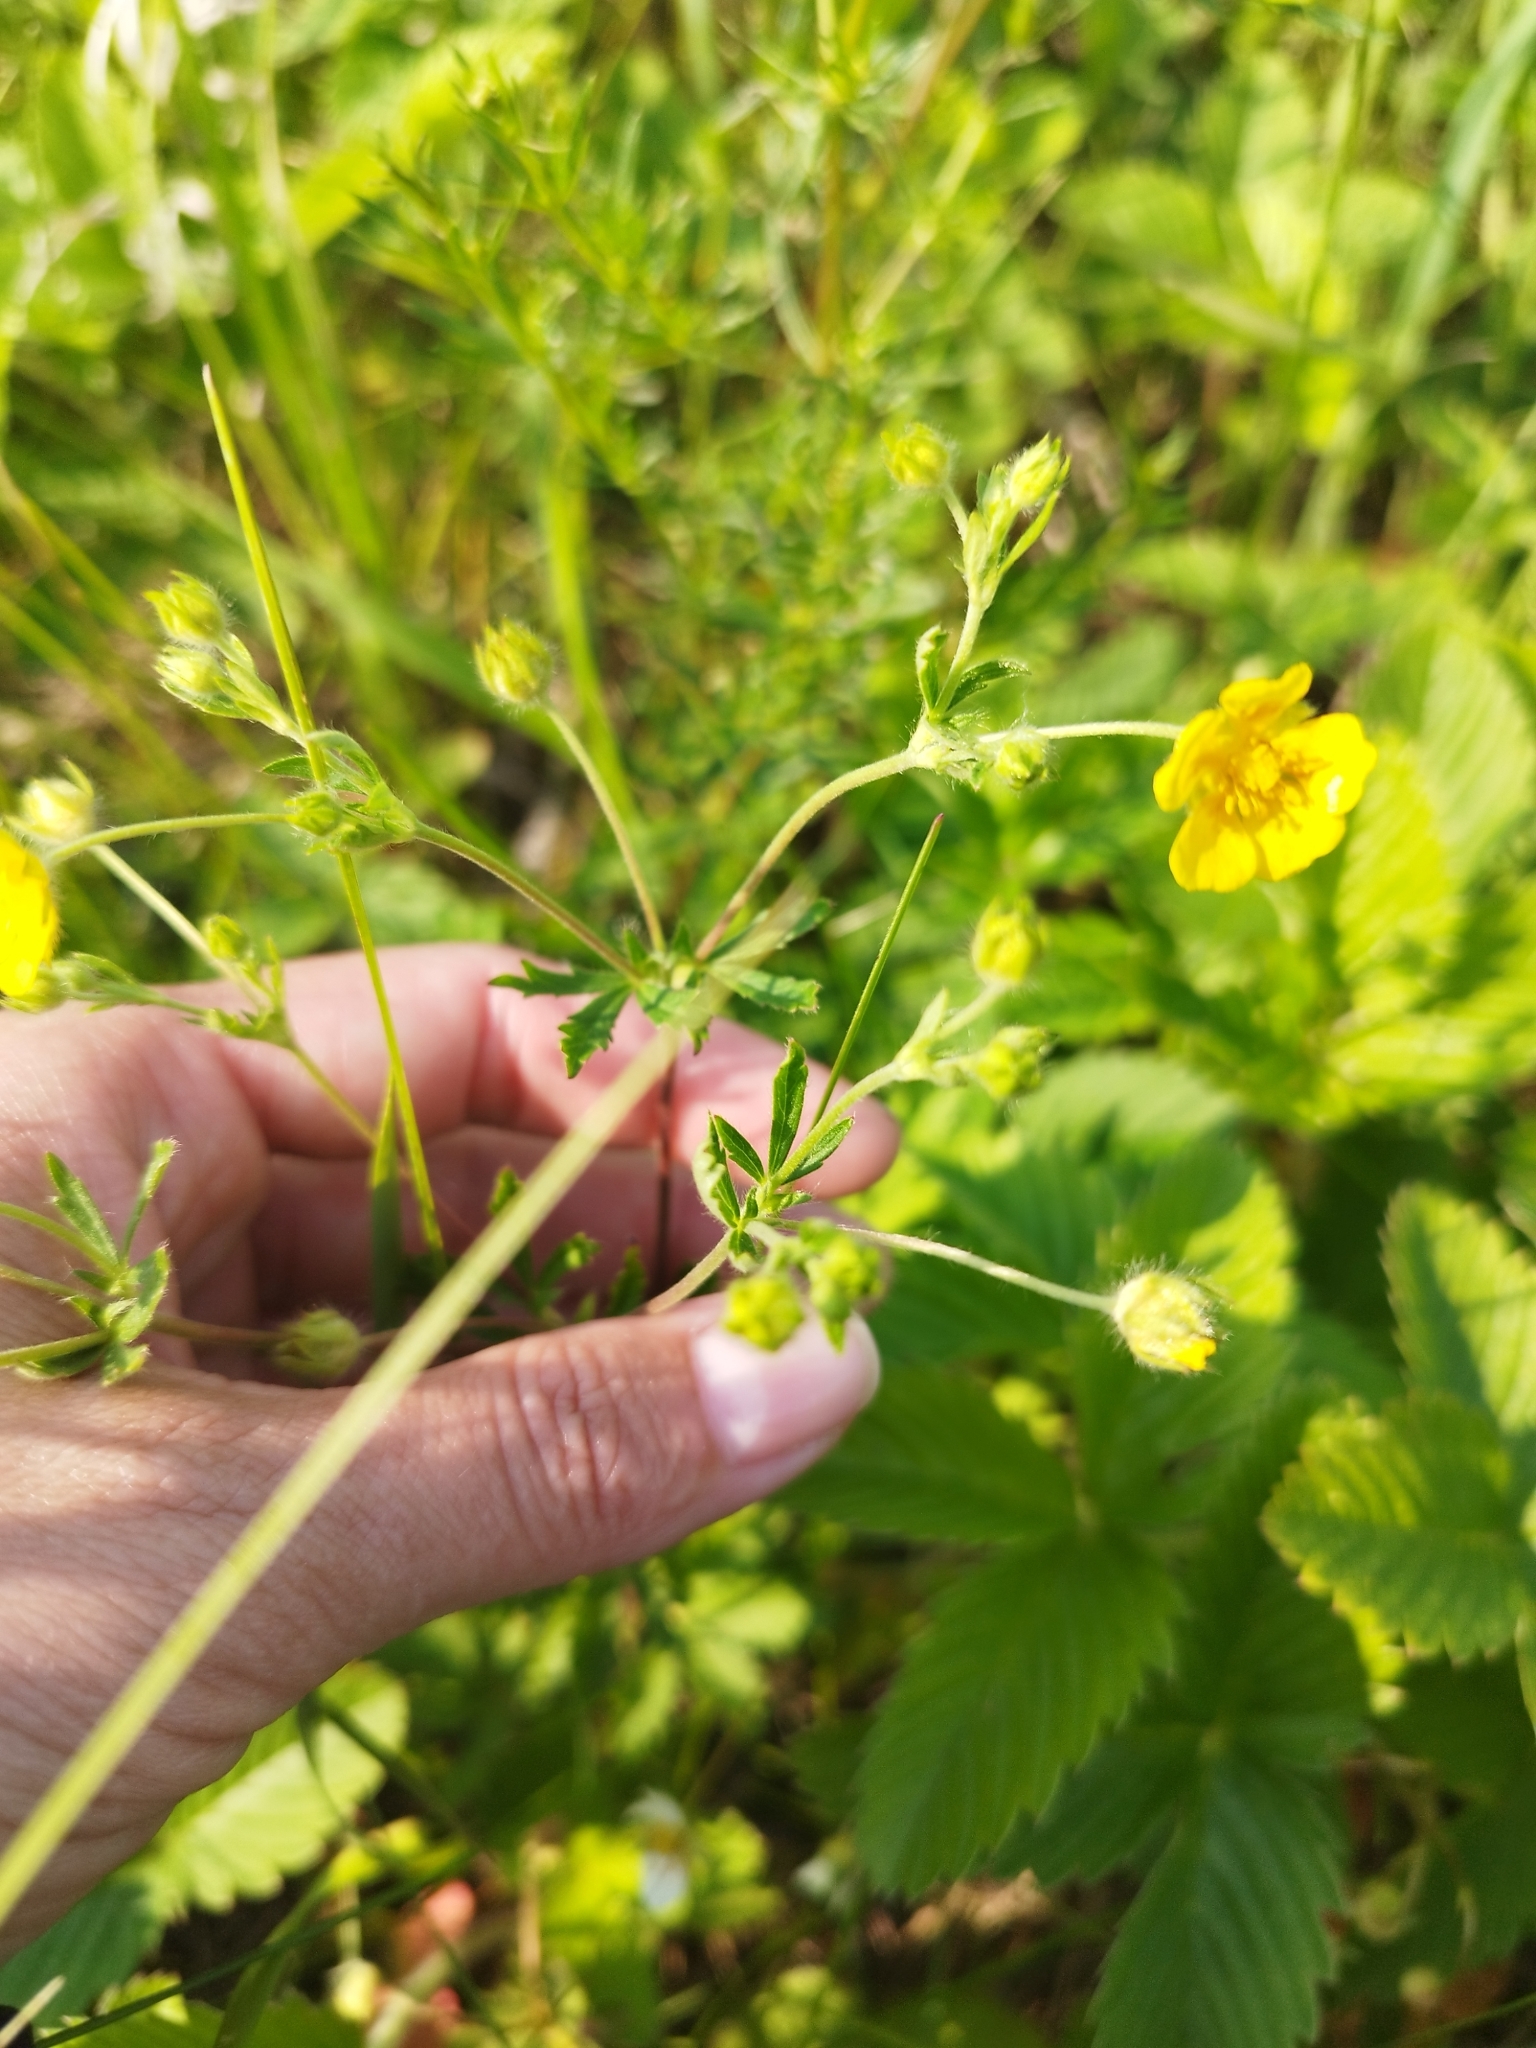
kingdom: Plantae
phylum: Tracheophyta
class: Magnoliopsida
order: Rosales
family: Rosaceae
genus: Potentilla
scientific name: Potentilla thuringiaca
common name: European cinquefoil
